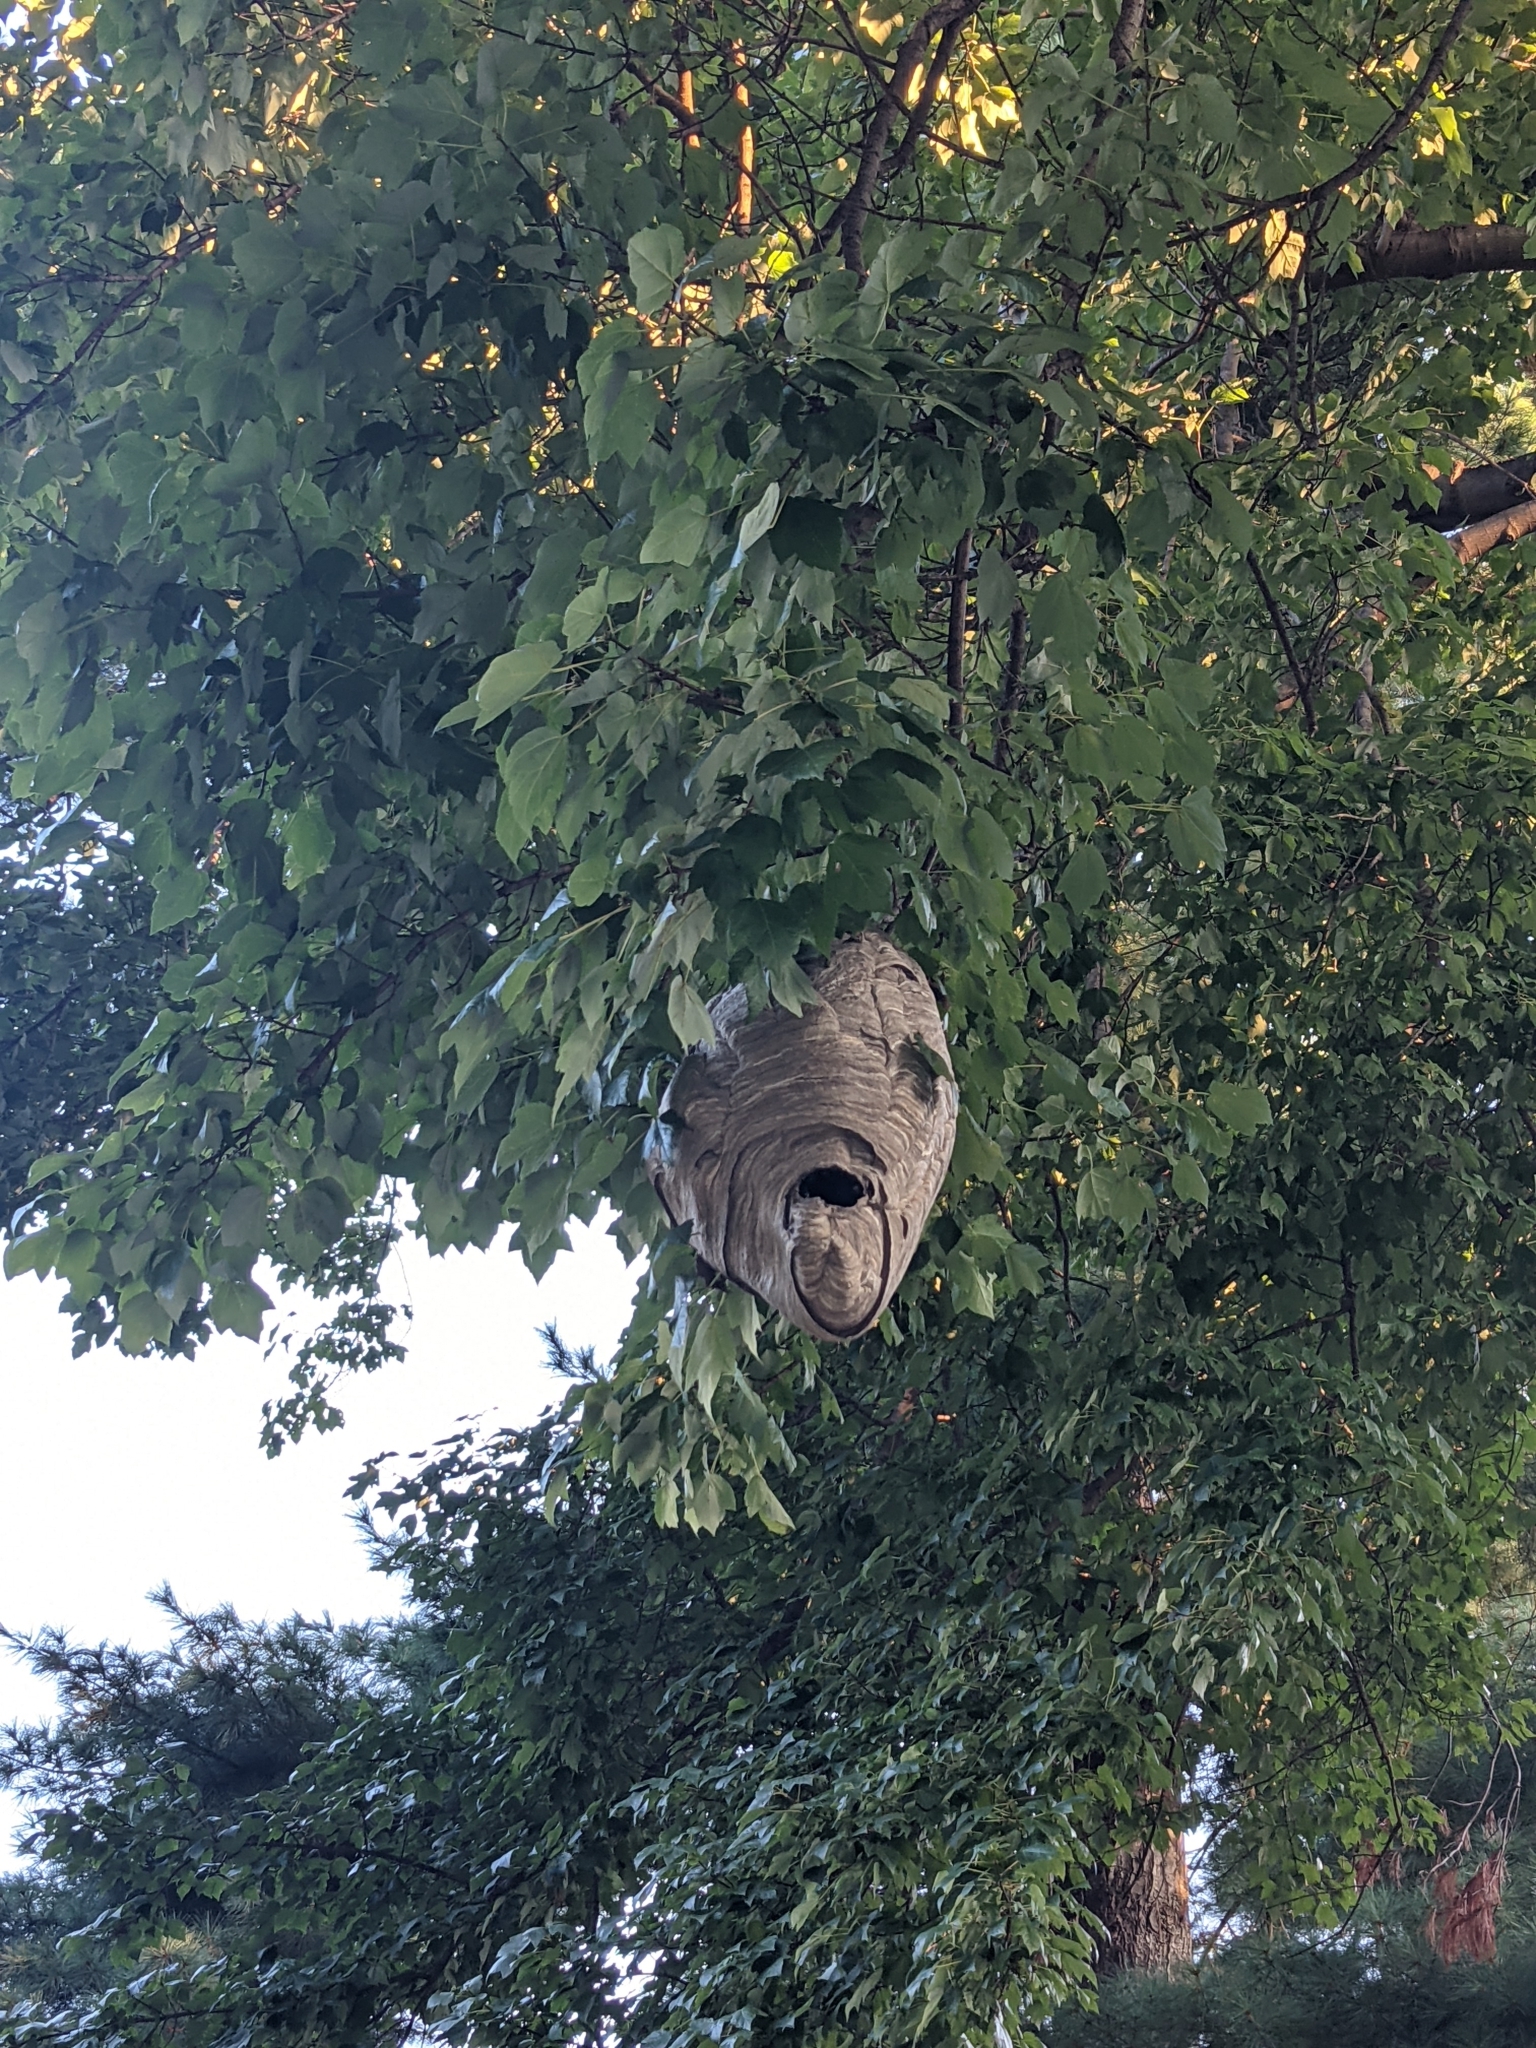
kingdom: Animalia
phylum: Arthropoda
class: Insecta
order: Hymenoptera
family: Vespidae
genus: Dolichovespula
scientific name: Dolichovespula maculata
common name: Bald-faced hornet
